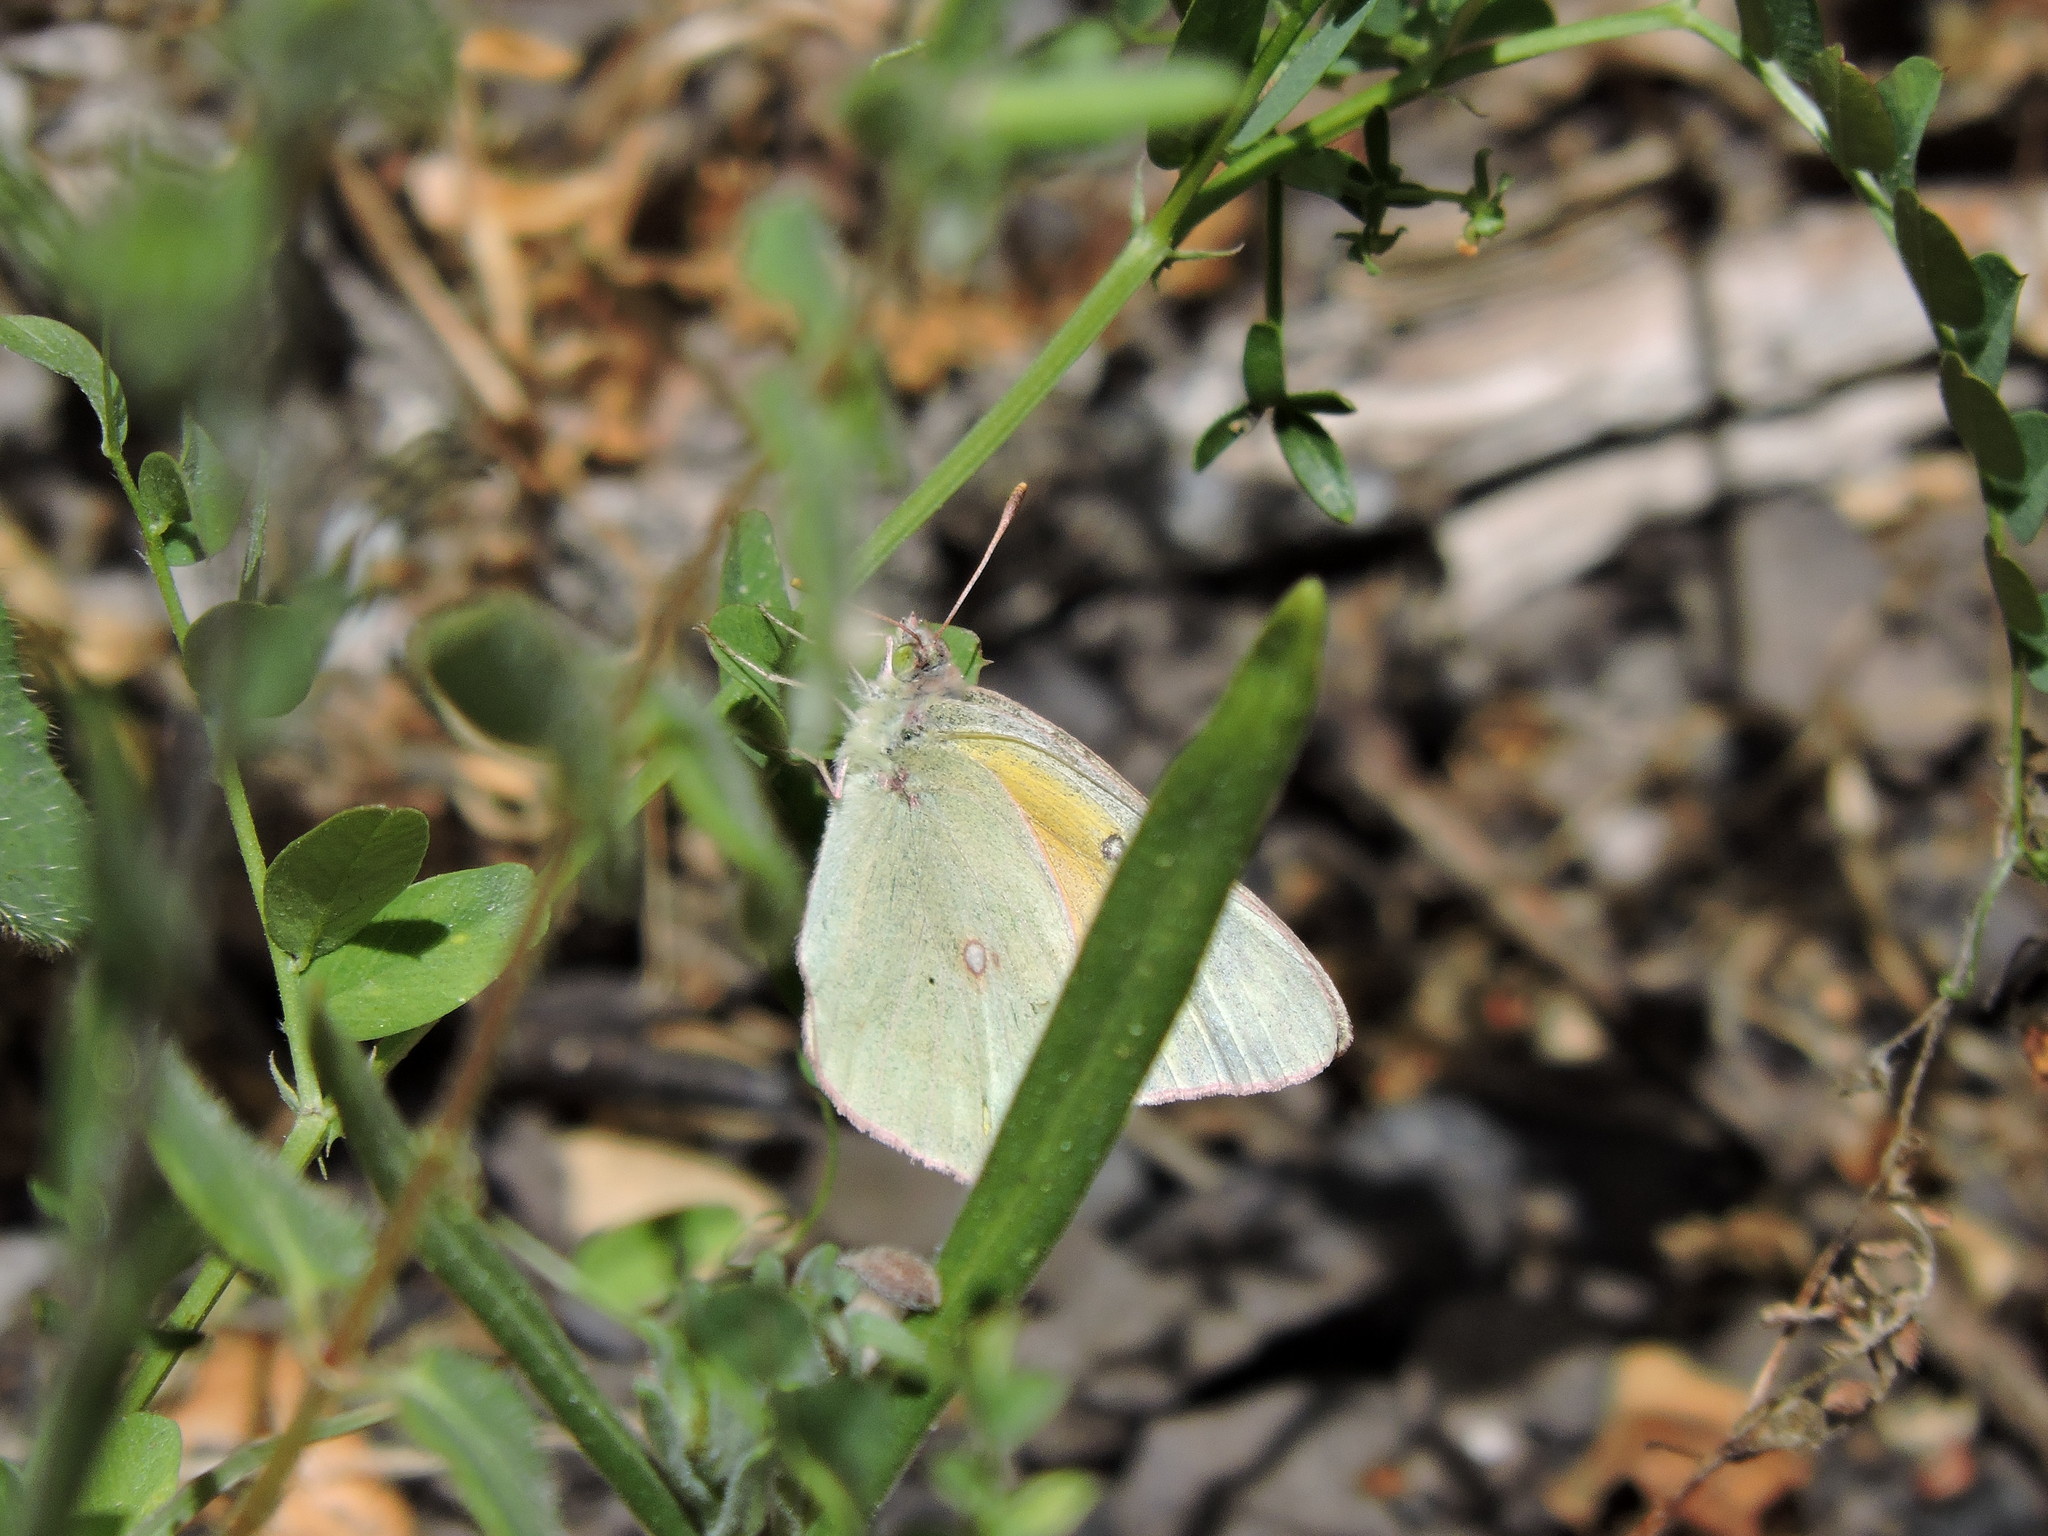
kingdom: Animalia
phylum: Arthropoda
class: Insecta
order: Lepidoptera
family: Pieridae
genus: Colias
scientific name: Colias eurytheme
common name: Alfalfa butterfly
